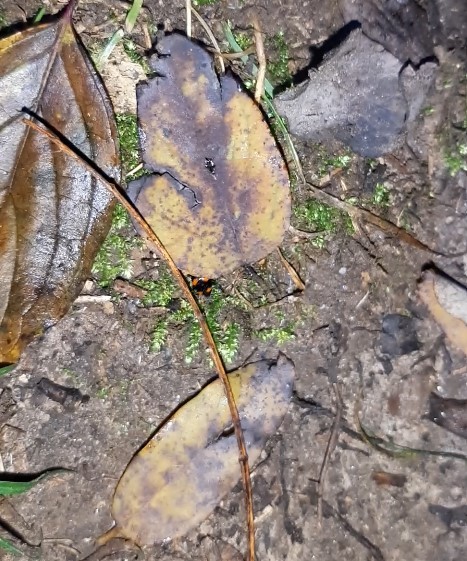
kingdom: Animalia
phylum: Arthropoda
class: Insecta
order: Coleoptera
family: Staphylinidae
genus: Scaphidium
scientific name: Scaphidium quadrimaculatum
